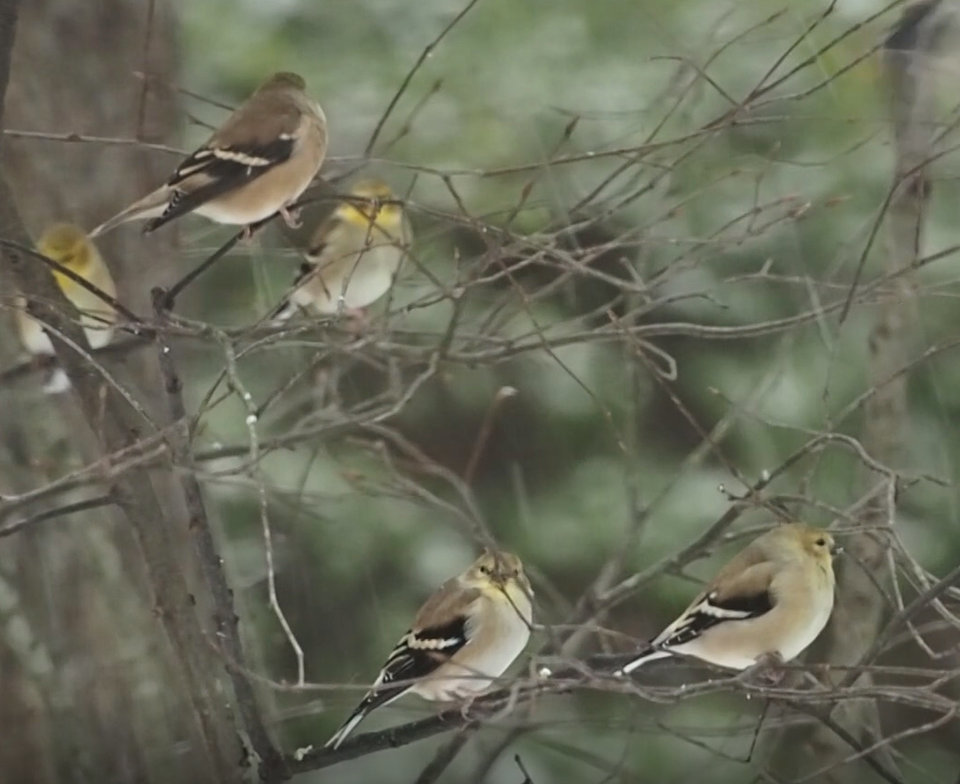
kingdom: Animalia
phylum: Chordata
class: Aves
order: Passeriformes
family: Fringillidae
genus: Spinus
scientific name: Spinus tristis
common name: American goldfinch
